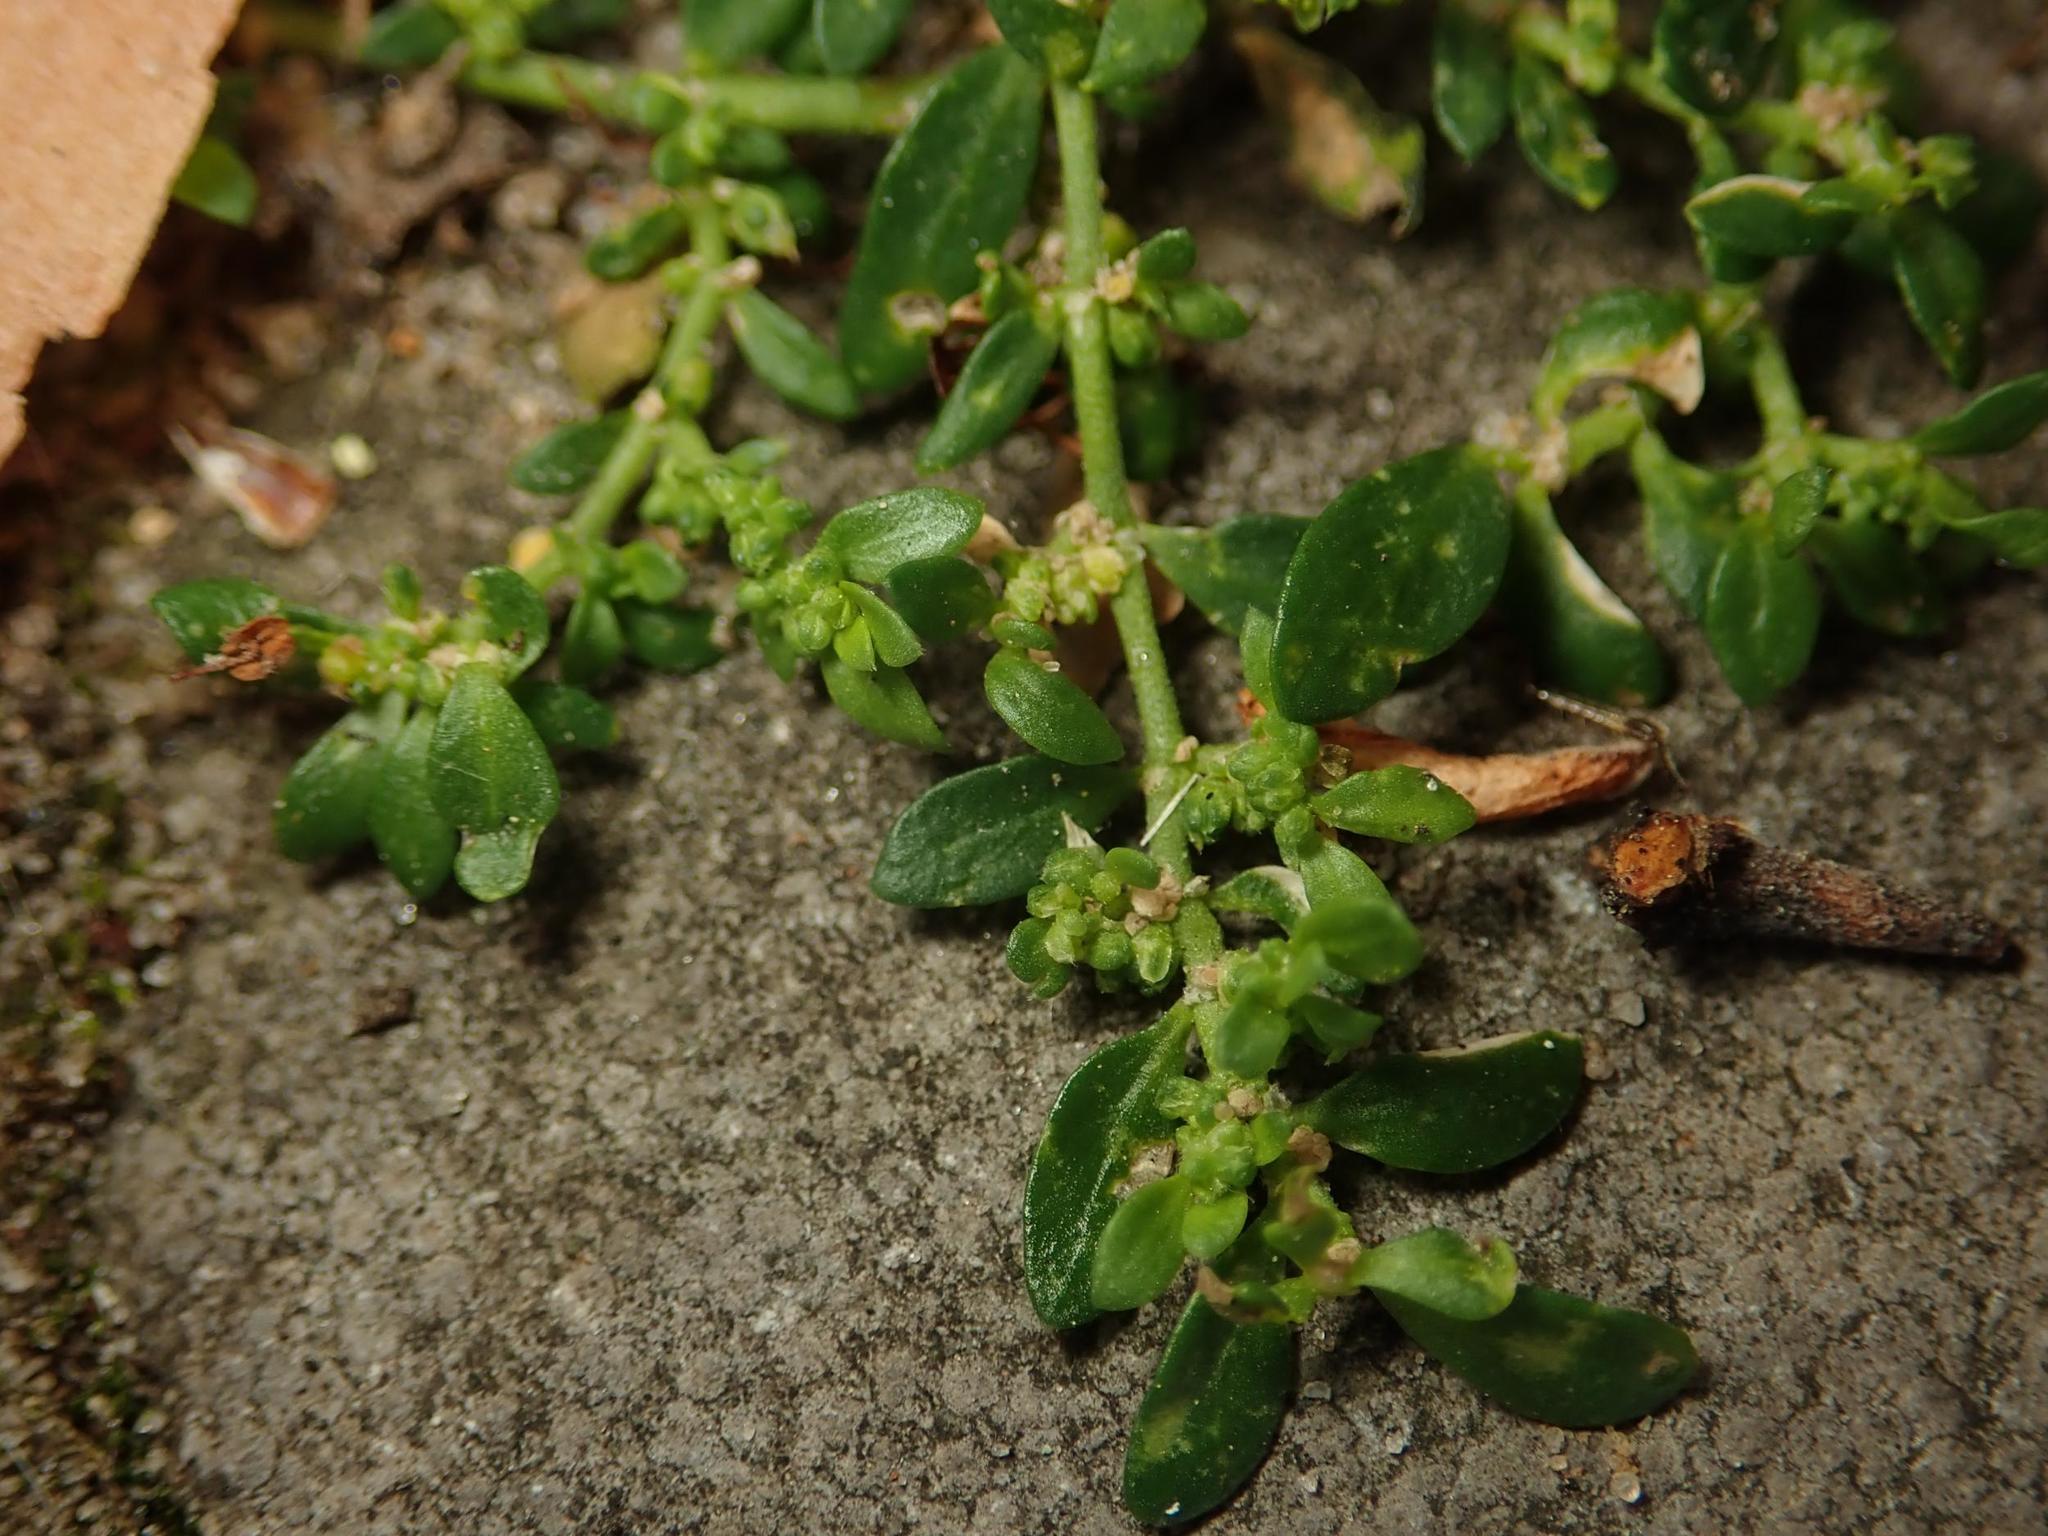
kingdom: Plantae
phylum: Tracheophyta
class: Magnoliopsida
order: Caryophyllales
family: Caryophyllaceae
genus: Herniaria
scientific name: Herniaria glabra
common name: Smooth rupturewort
